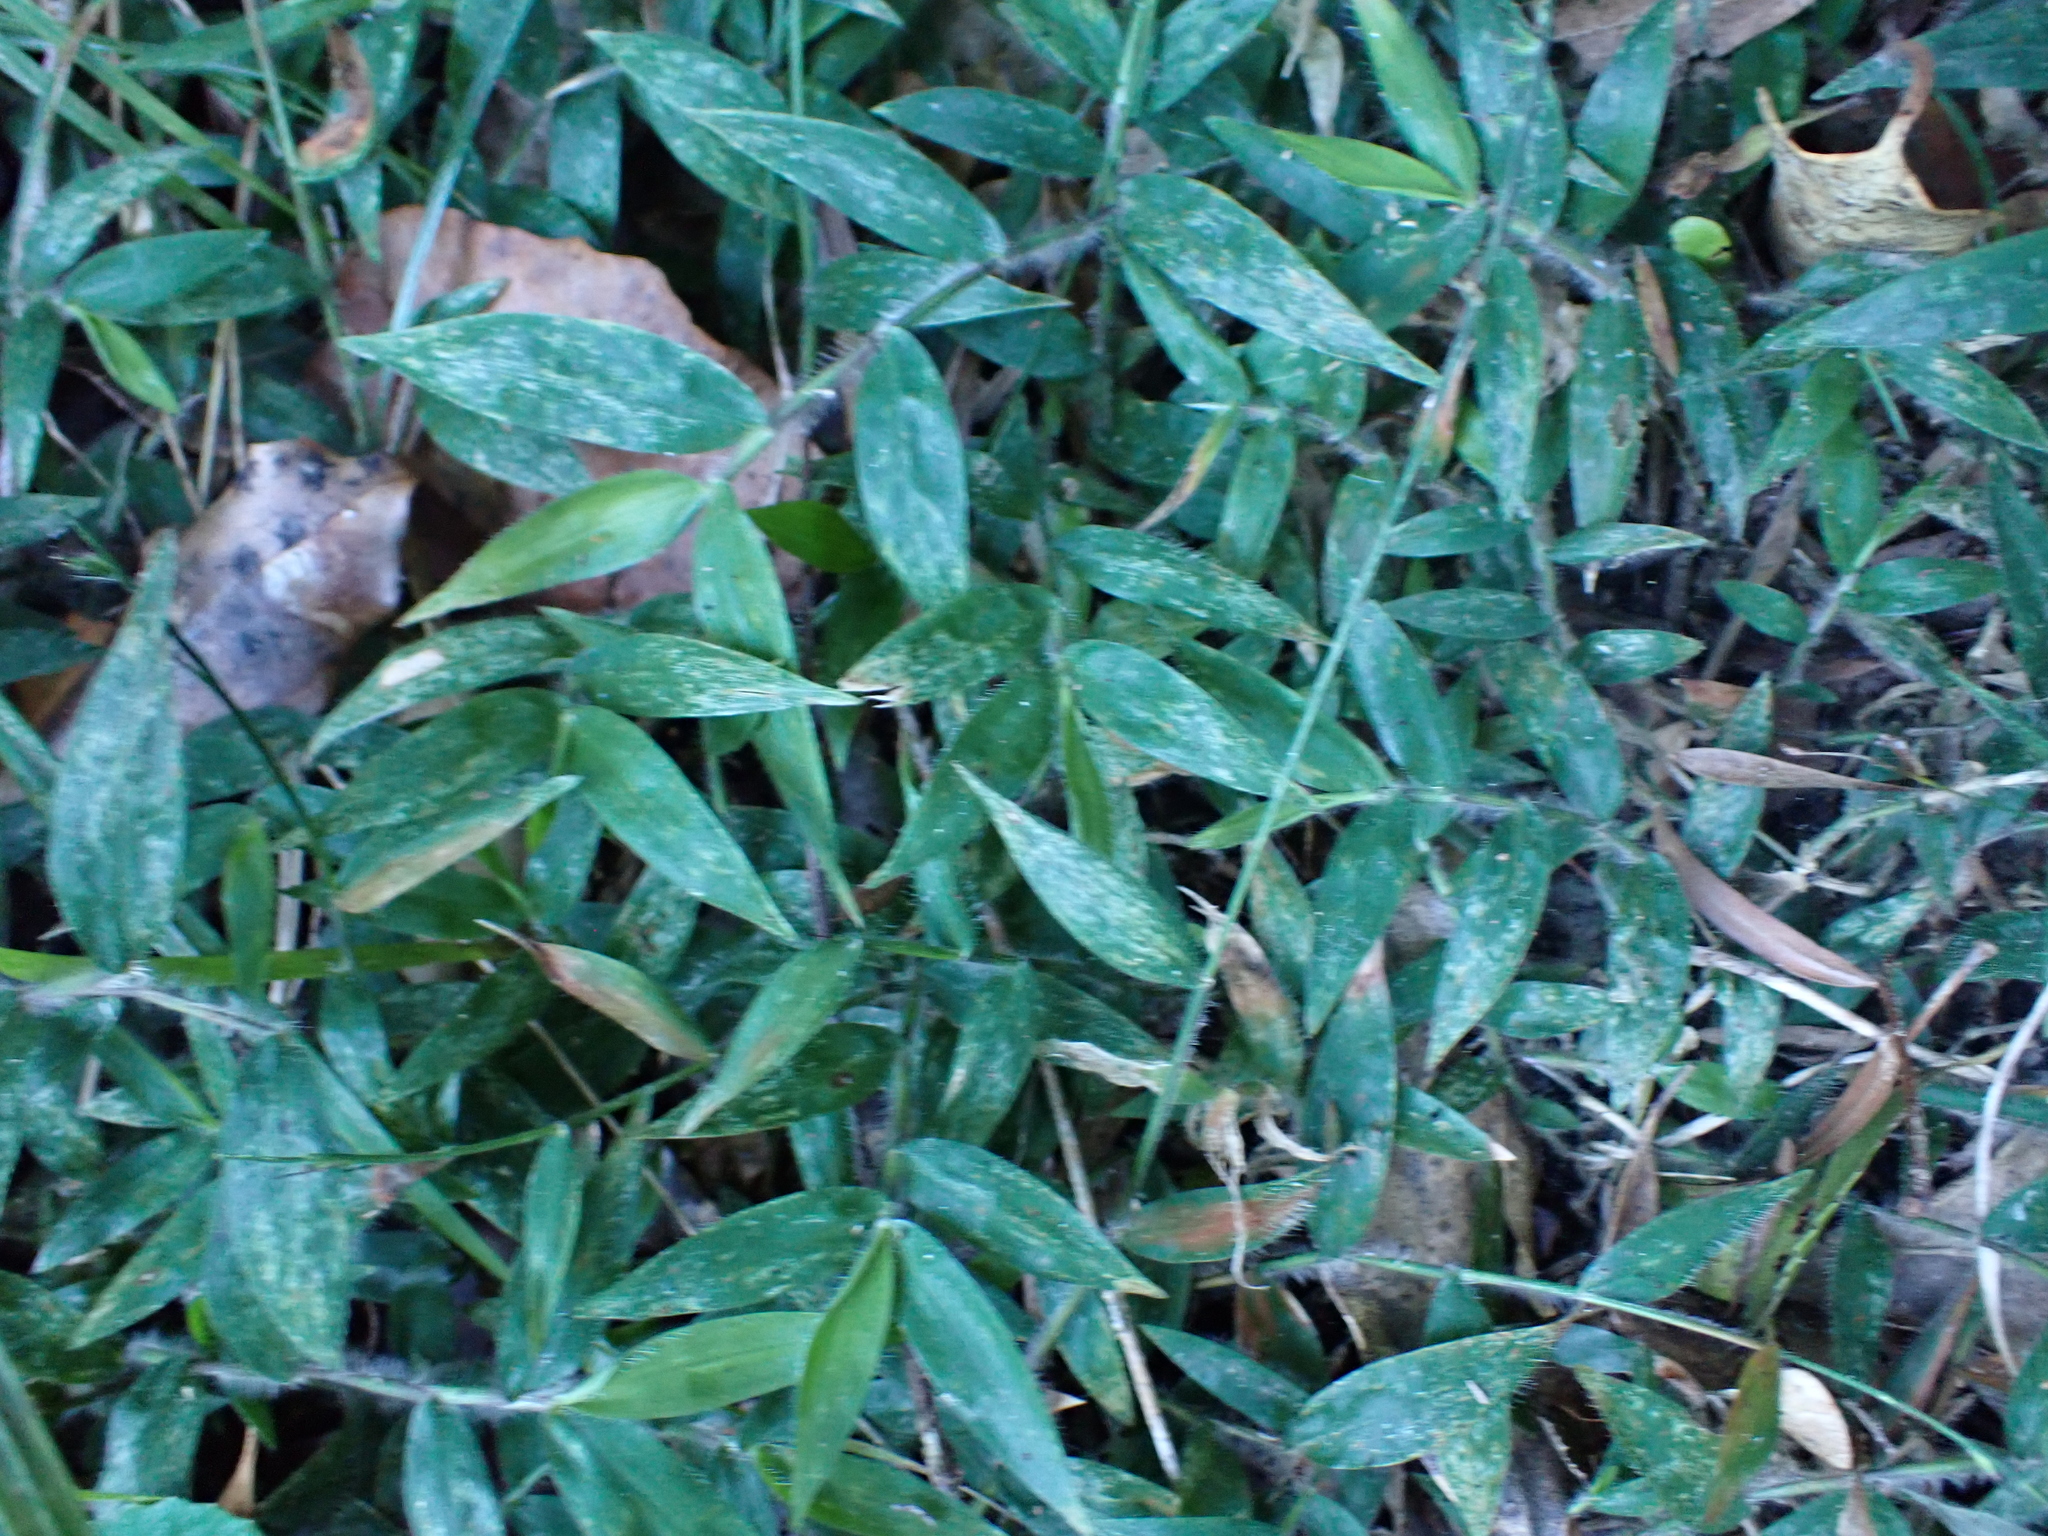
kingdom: Plantae
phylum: Tracheophyta
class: Liliopsida
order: Poales
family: Poaceae
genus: Oplismenus
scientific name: Oplismenus hirtellus
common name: Basketgrass
